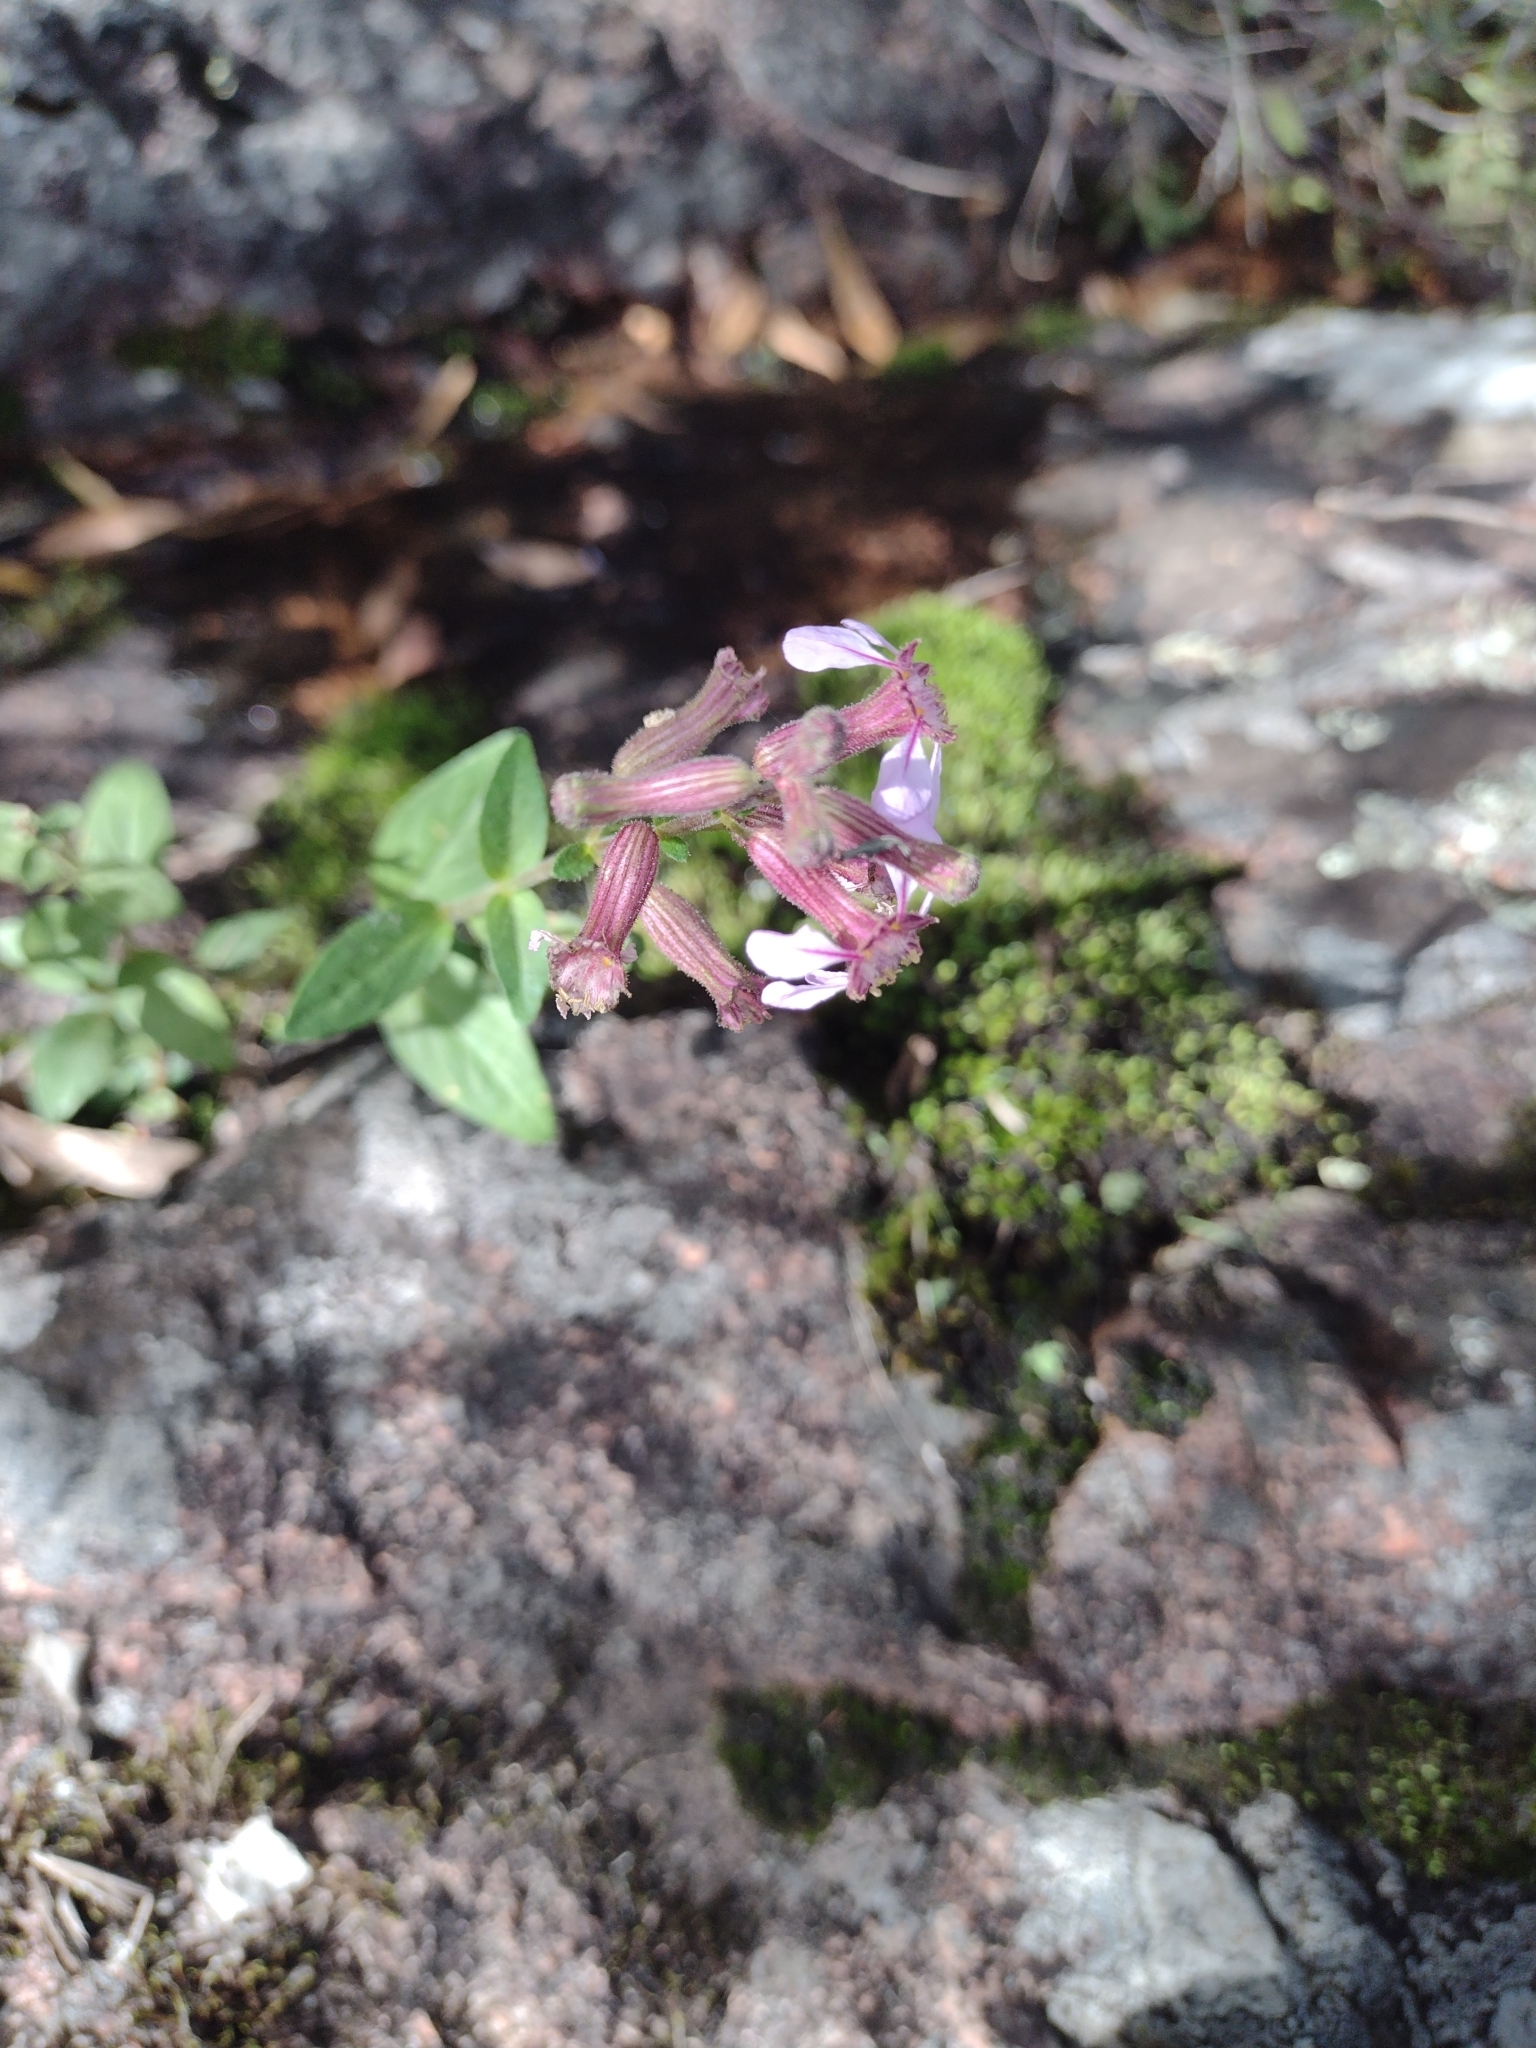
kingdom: Plantae
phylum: Tracheophyta
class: Magnoliopsida
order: Myrtales
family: Lythraceae
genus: Cuphea
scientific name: Cuphea glutinosa
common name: Sticky waxweed
